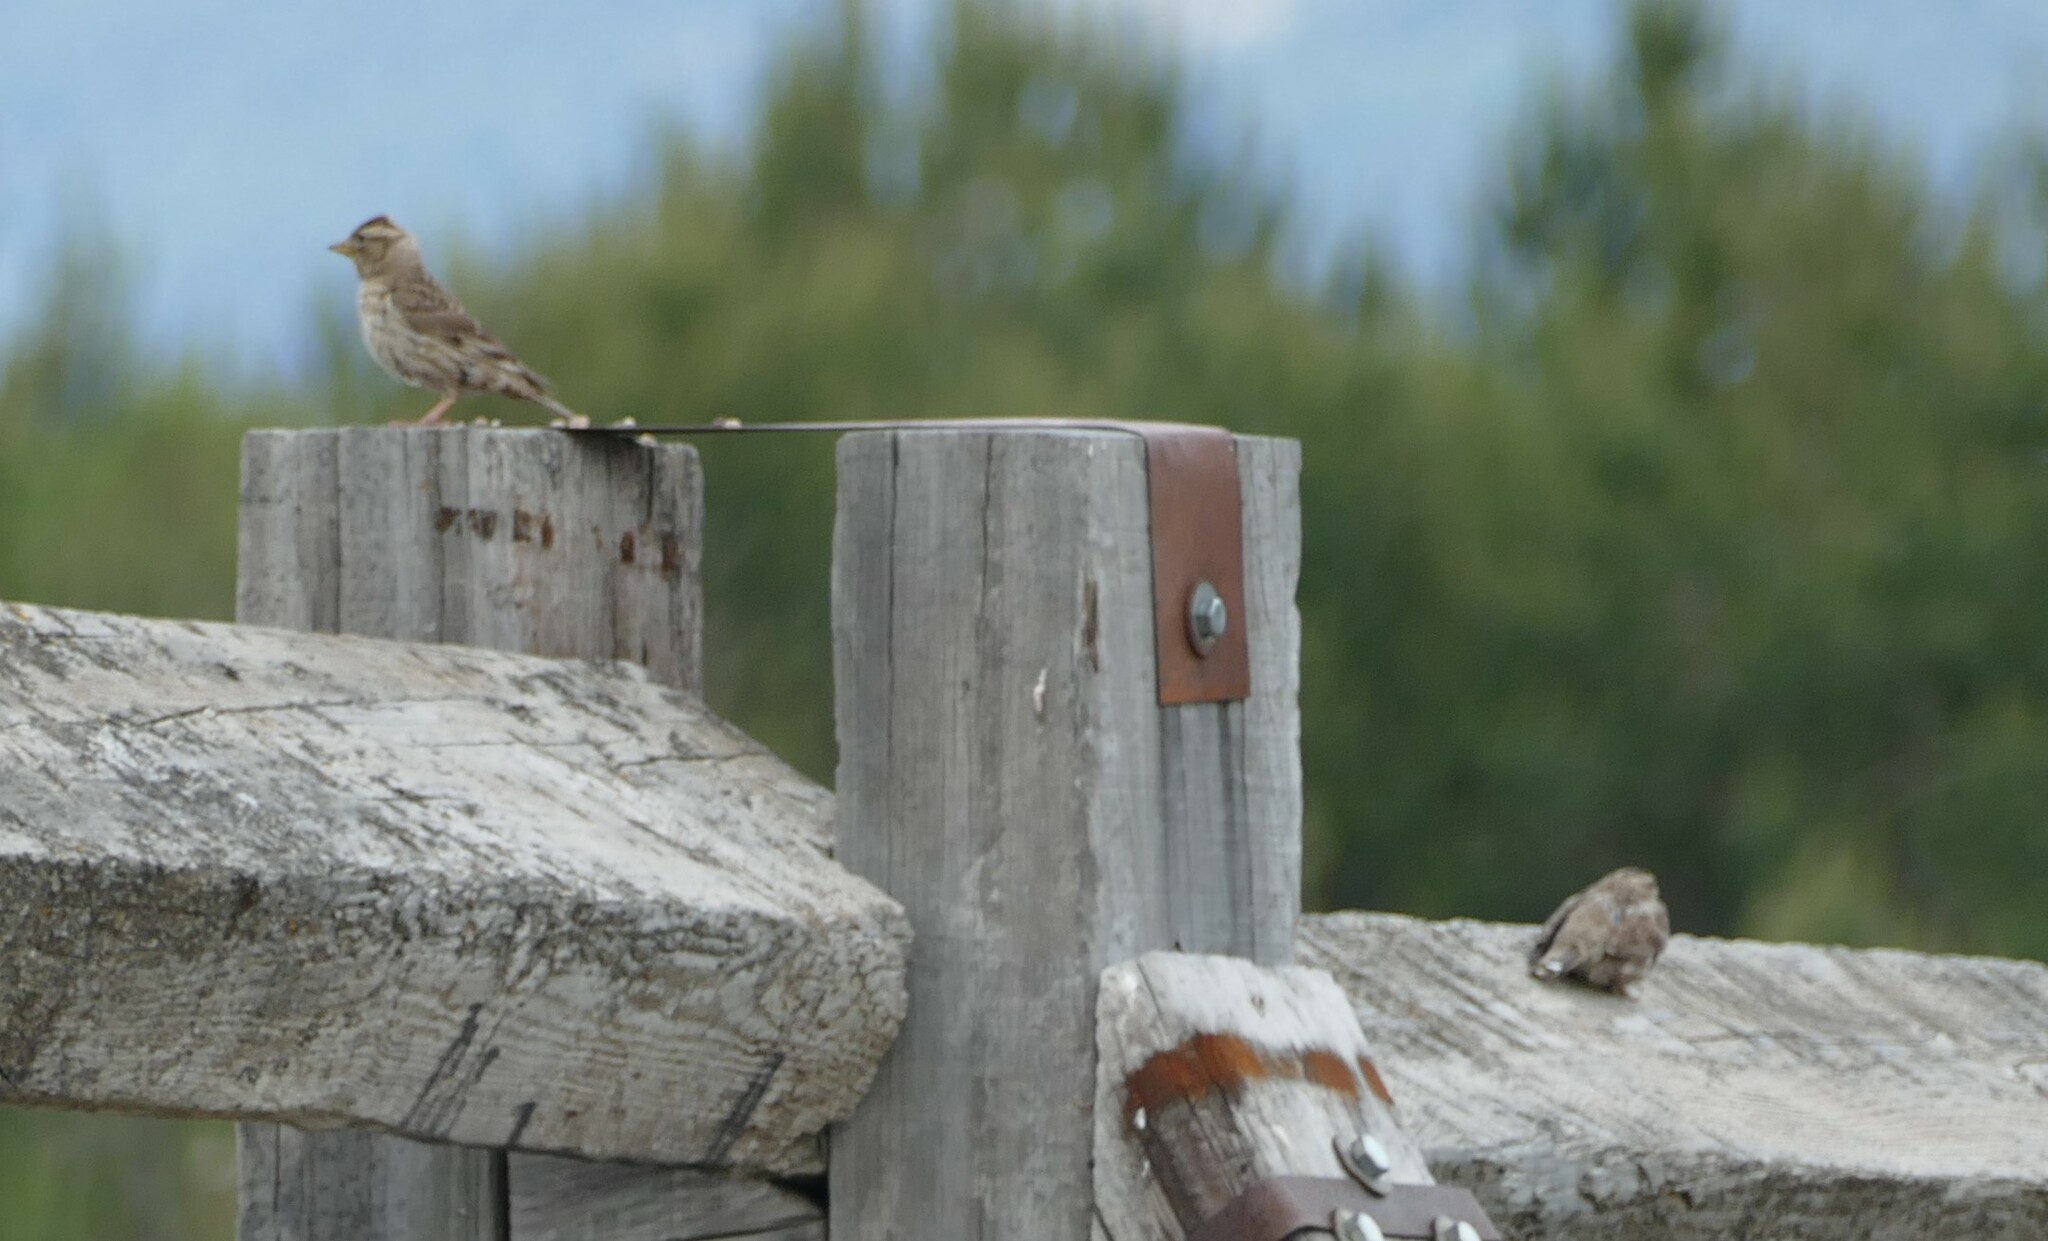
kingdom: Animalia
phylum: Chordata
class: Aves
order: Passeriformes
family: Passeridae
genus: Petronia
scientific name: Petronia petronia
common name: Rock sparrow
